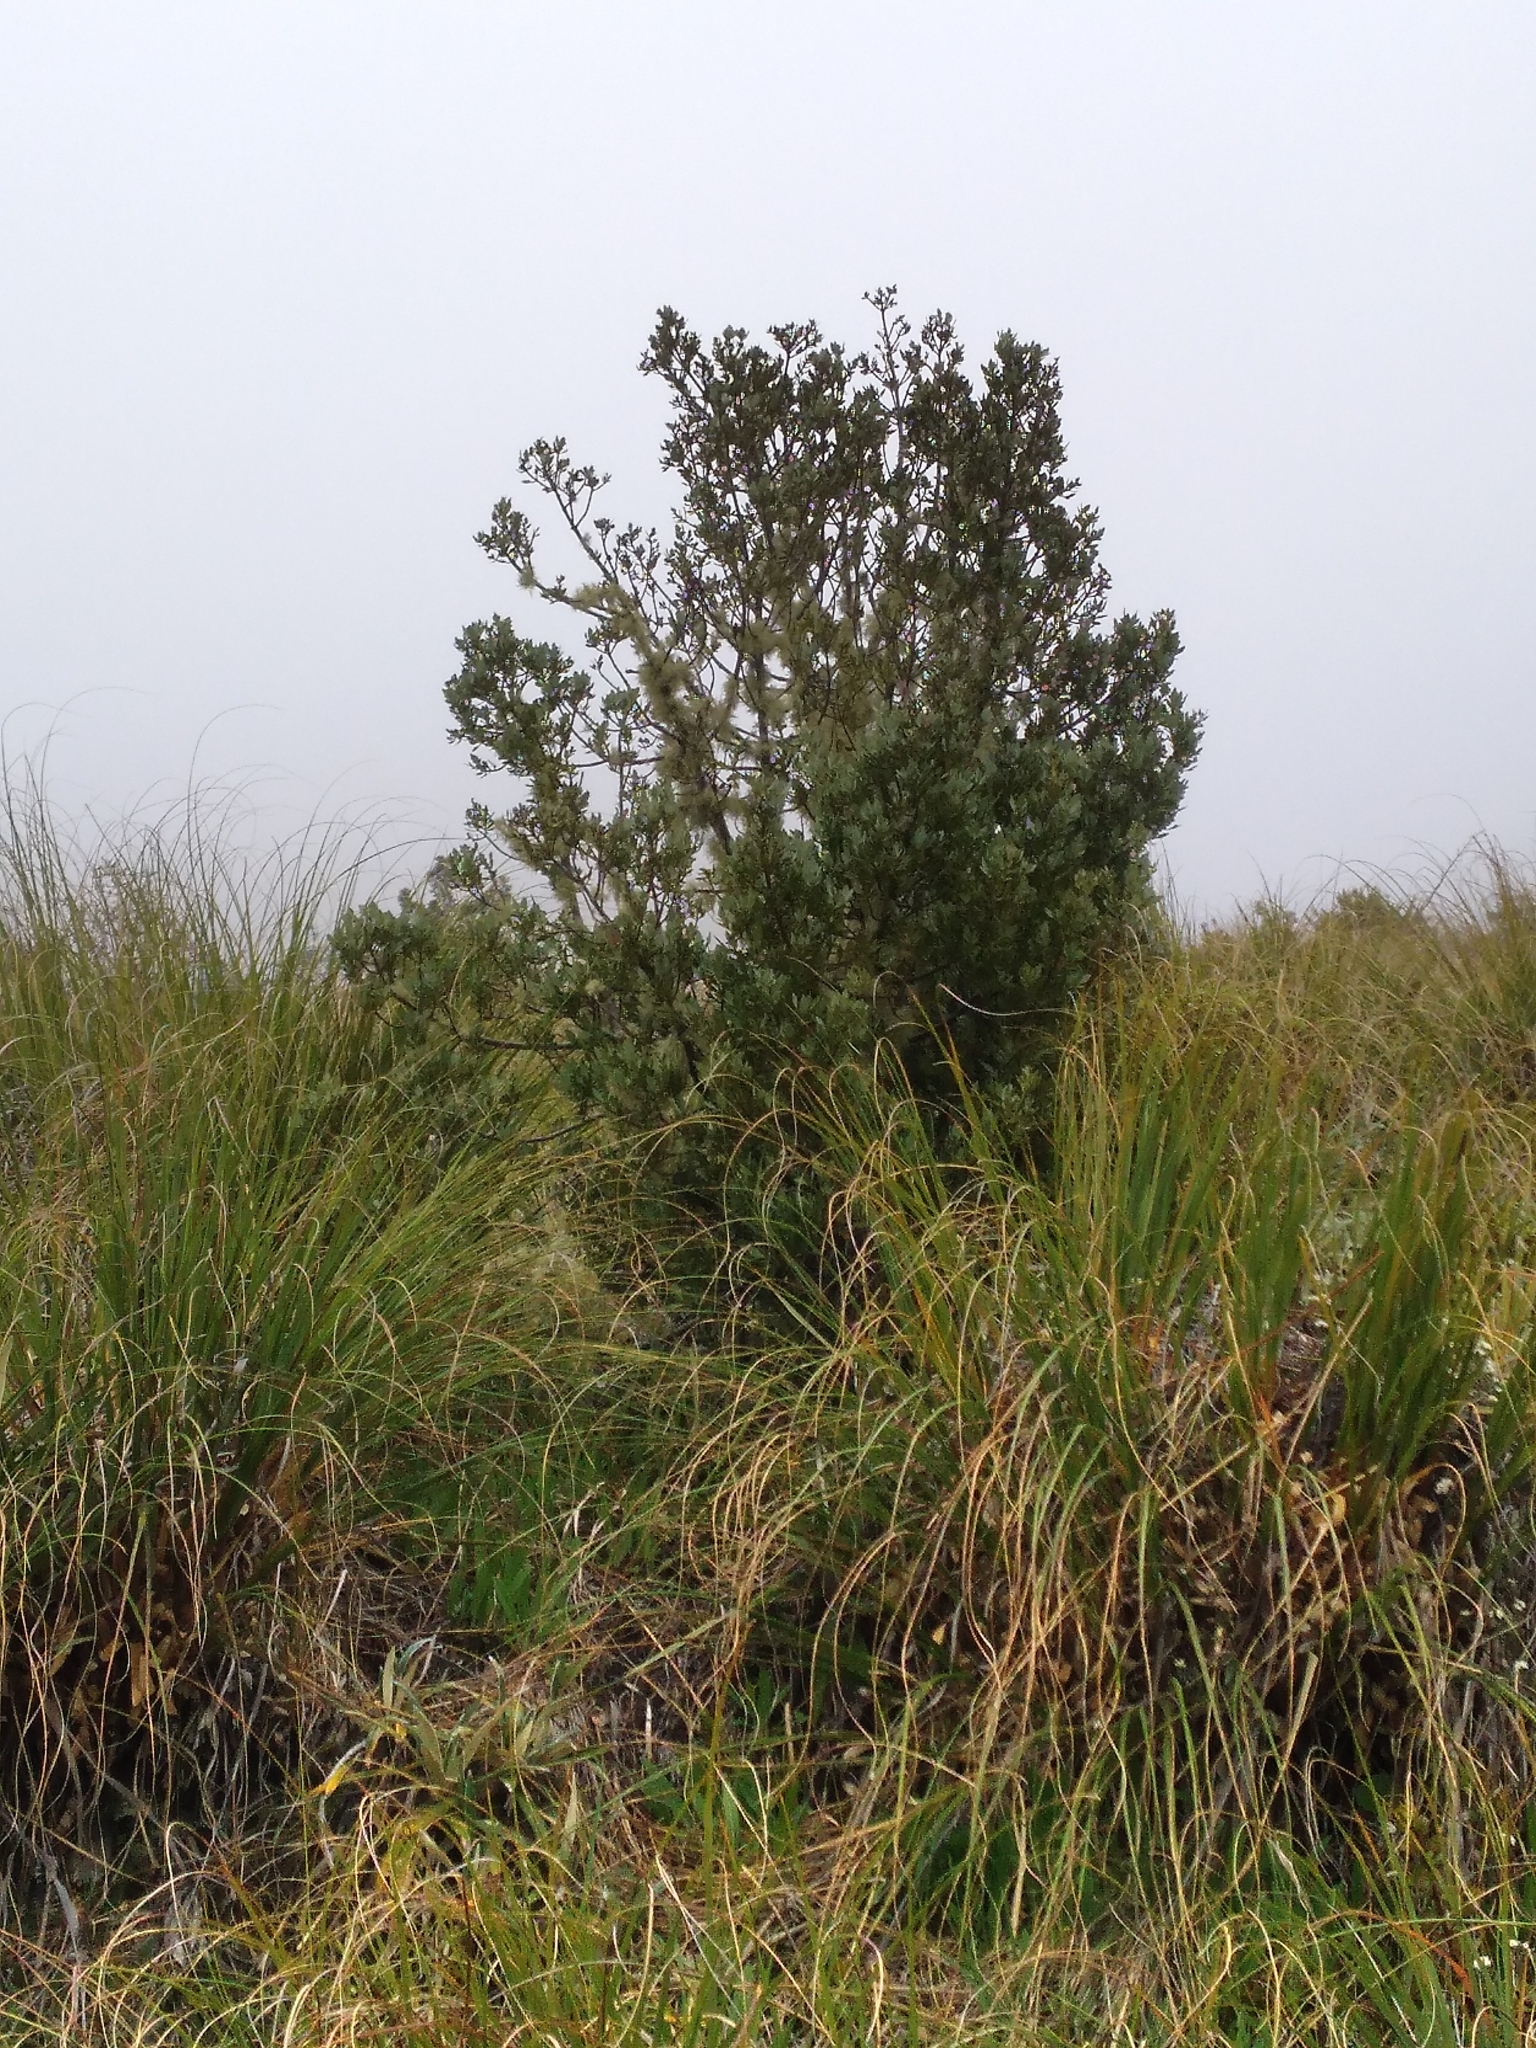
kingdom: Plantae
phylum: Tracheophyta
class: Pinopsida
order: Pinales
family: Phyllocladaceae
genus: Phyllocladus
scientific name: Phyllocladus trichomanoides
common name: Celery pine
